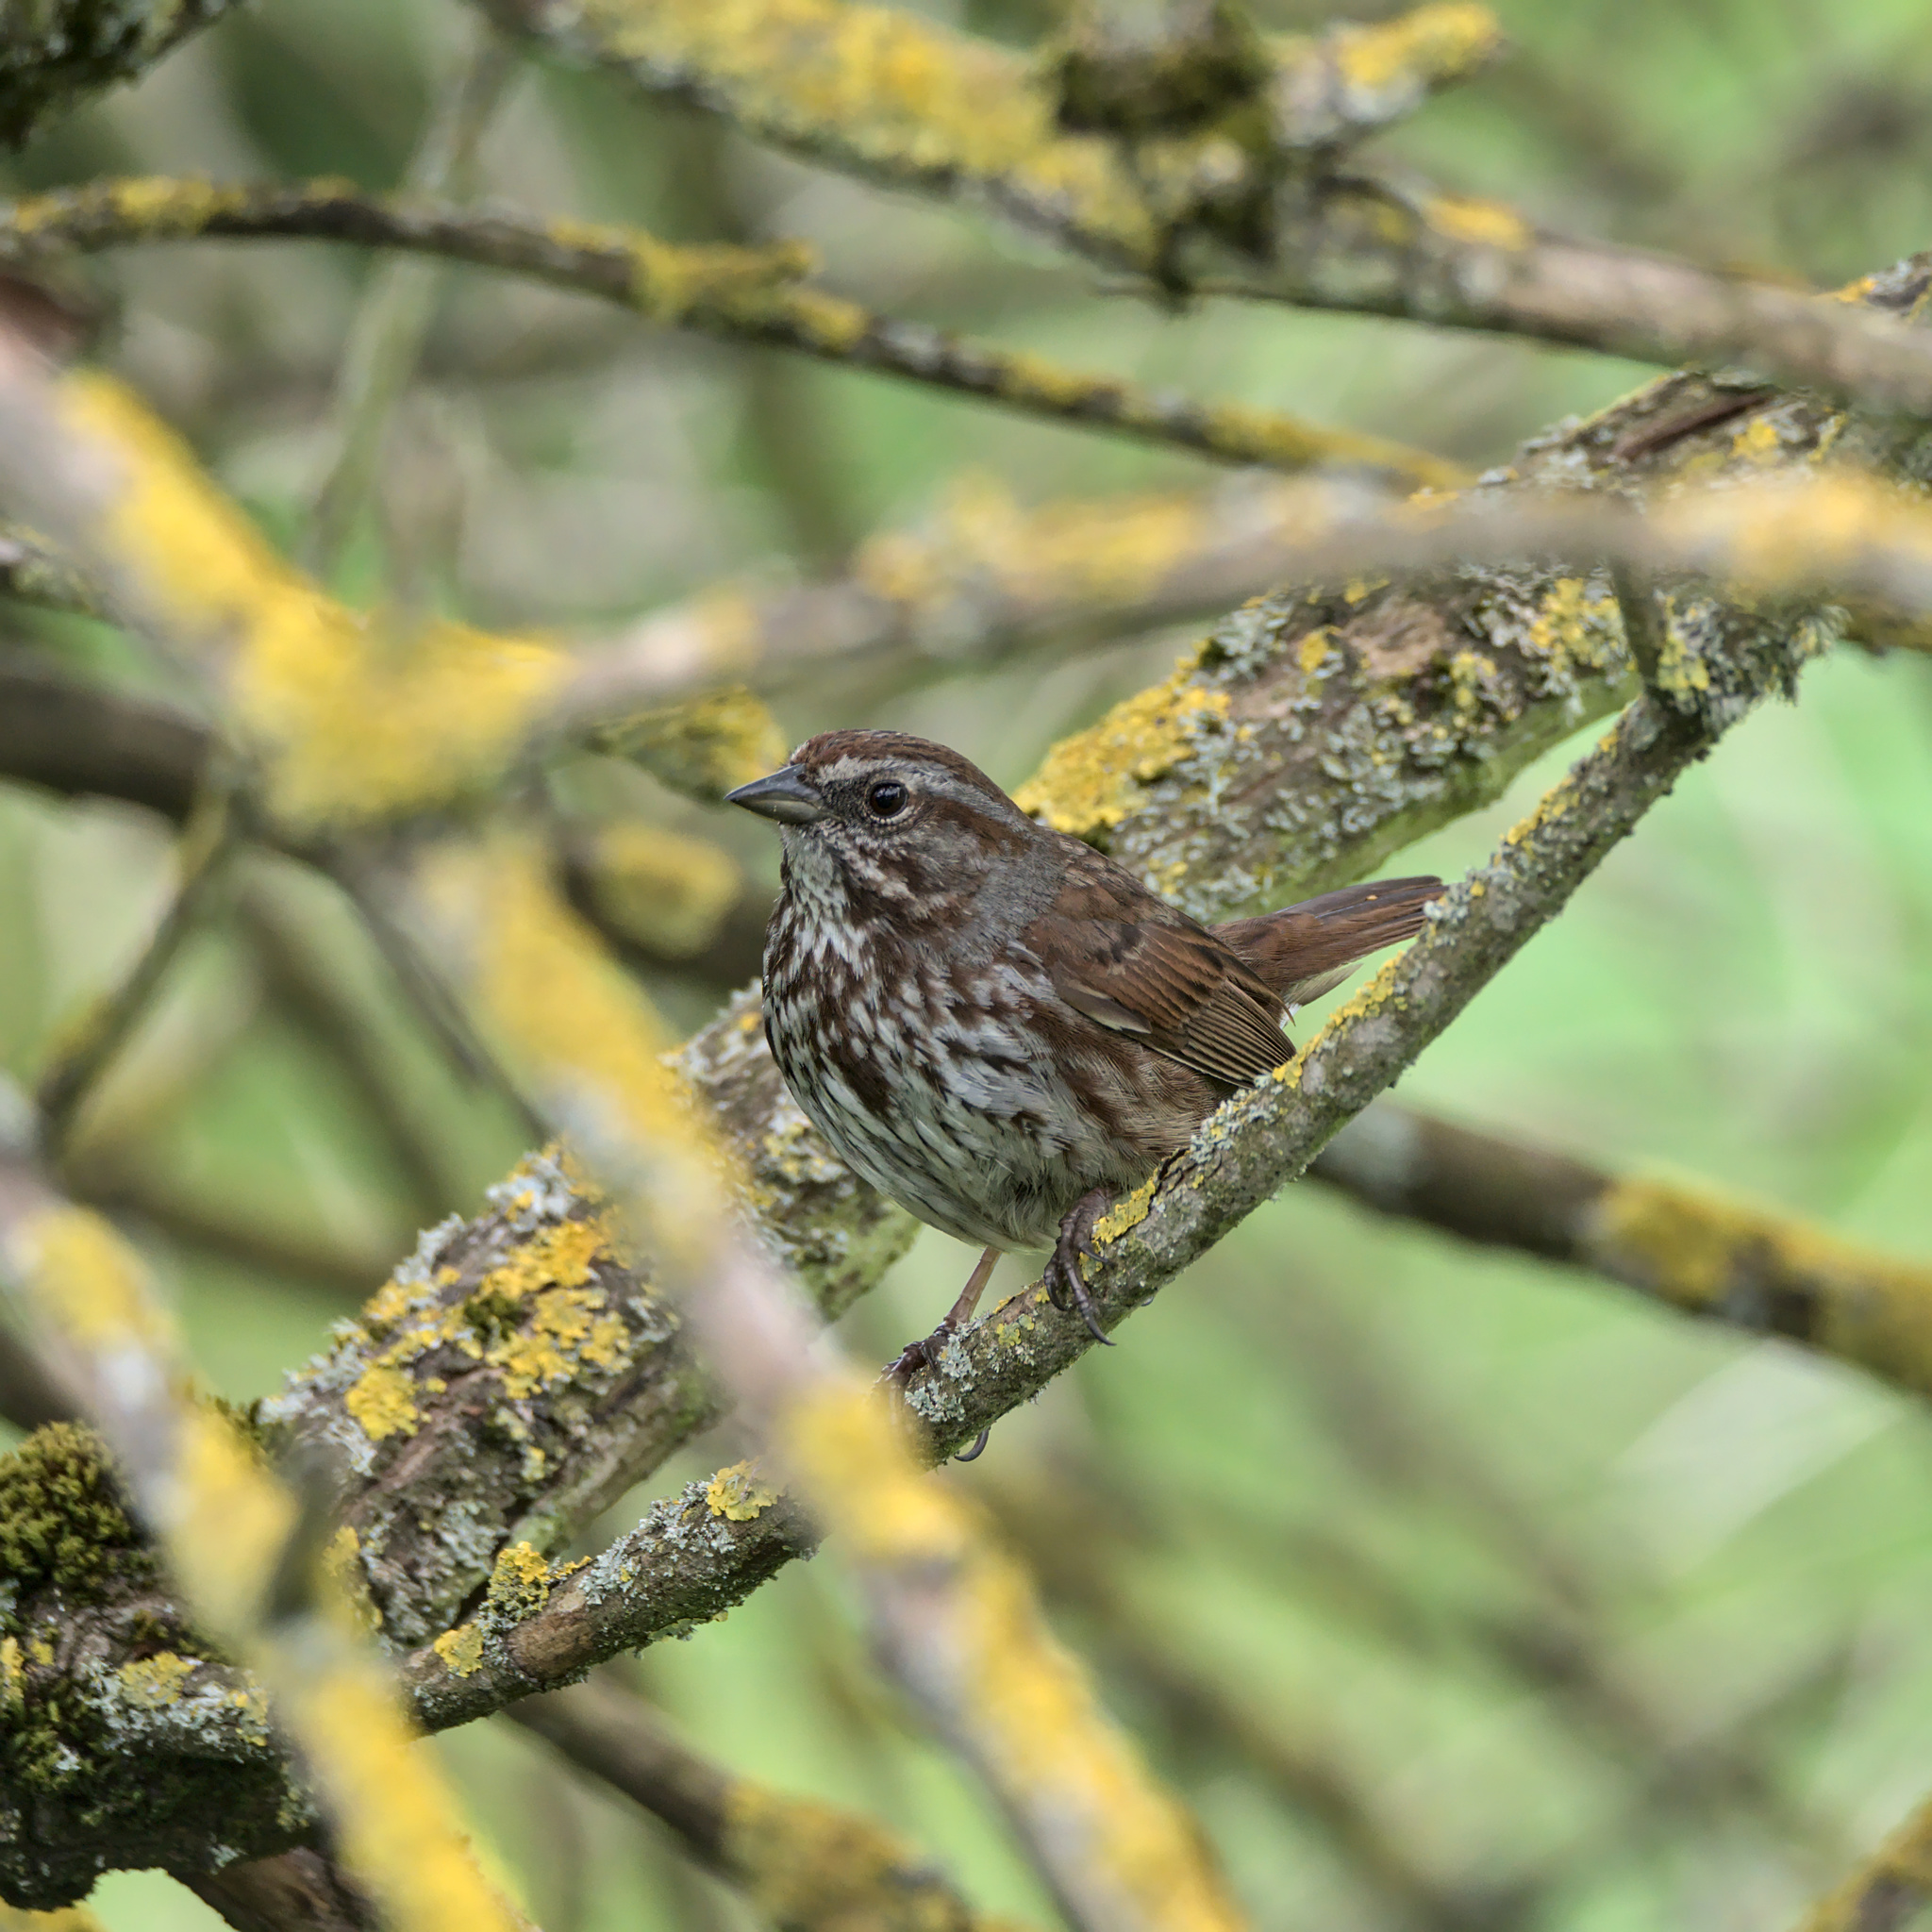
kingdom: Animalia
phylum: Chordata
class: Aves
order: Passeriformes
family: Passerellidae
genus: Melospiza
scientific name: Melospiza melodia
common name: Song sparrow
